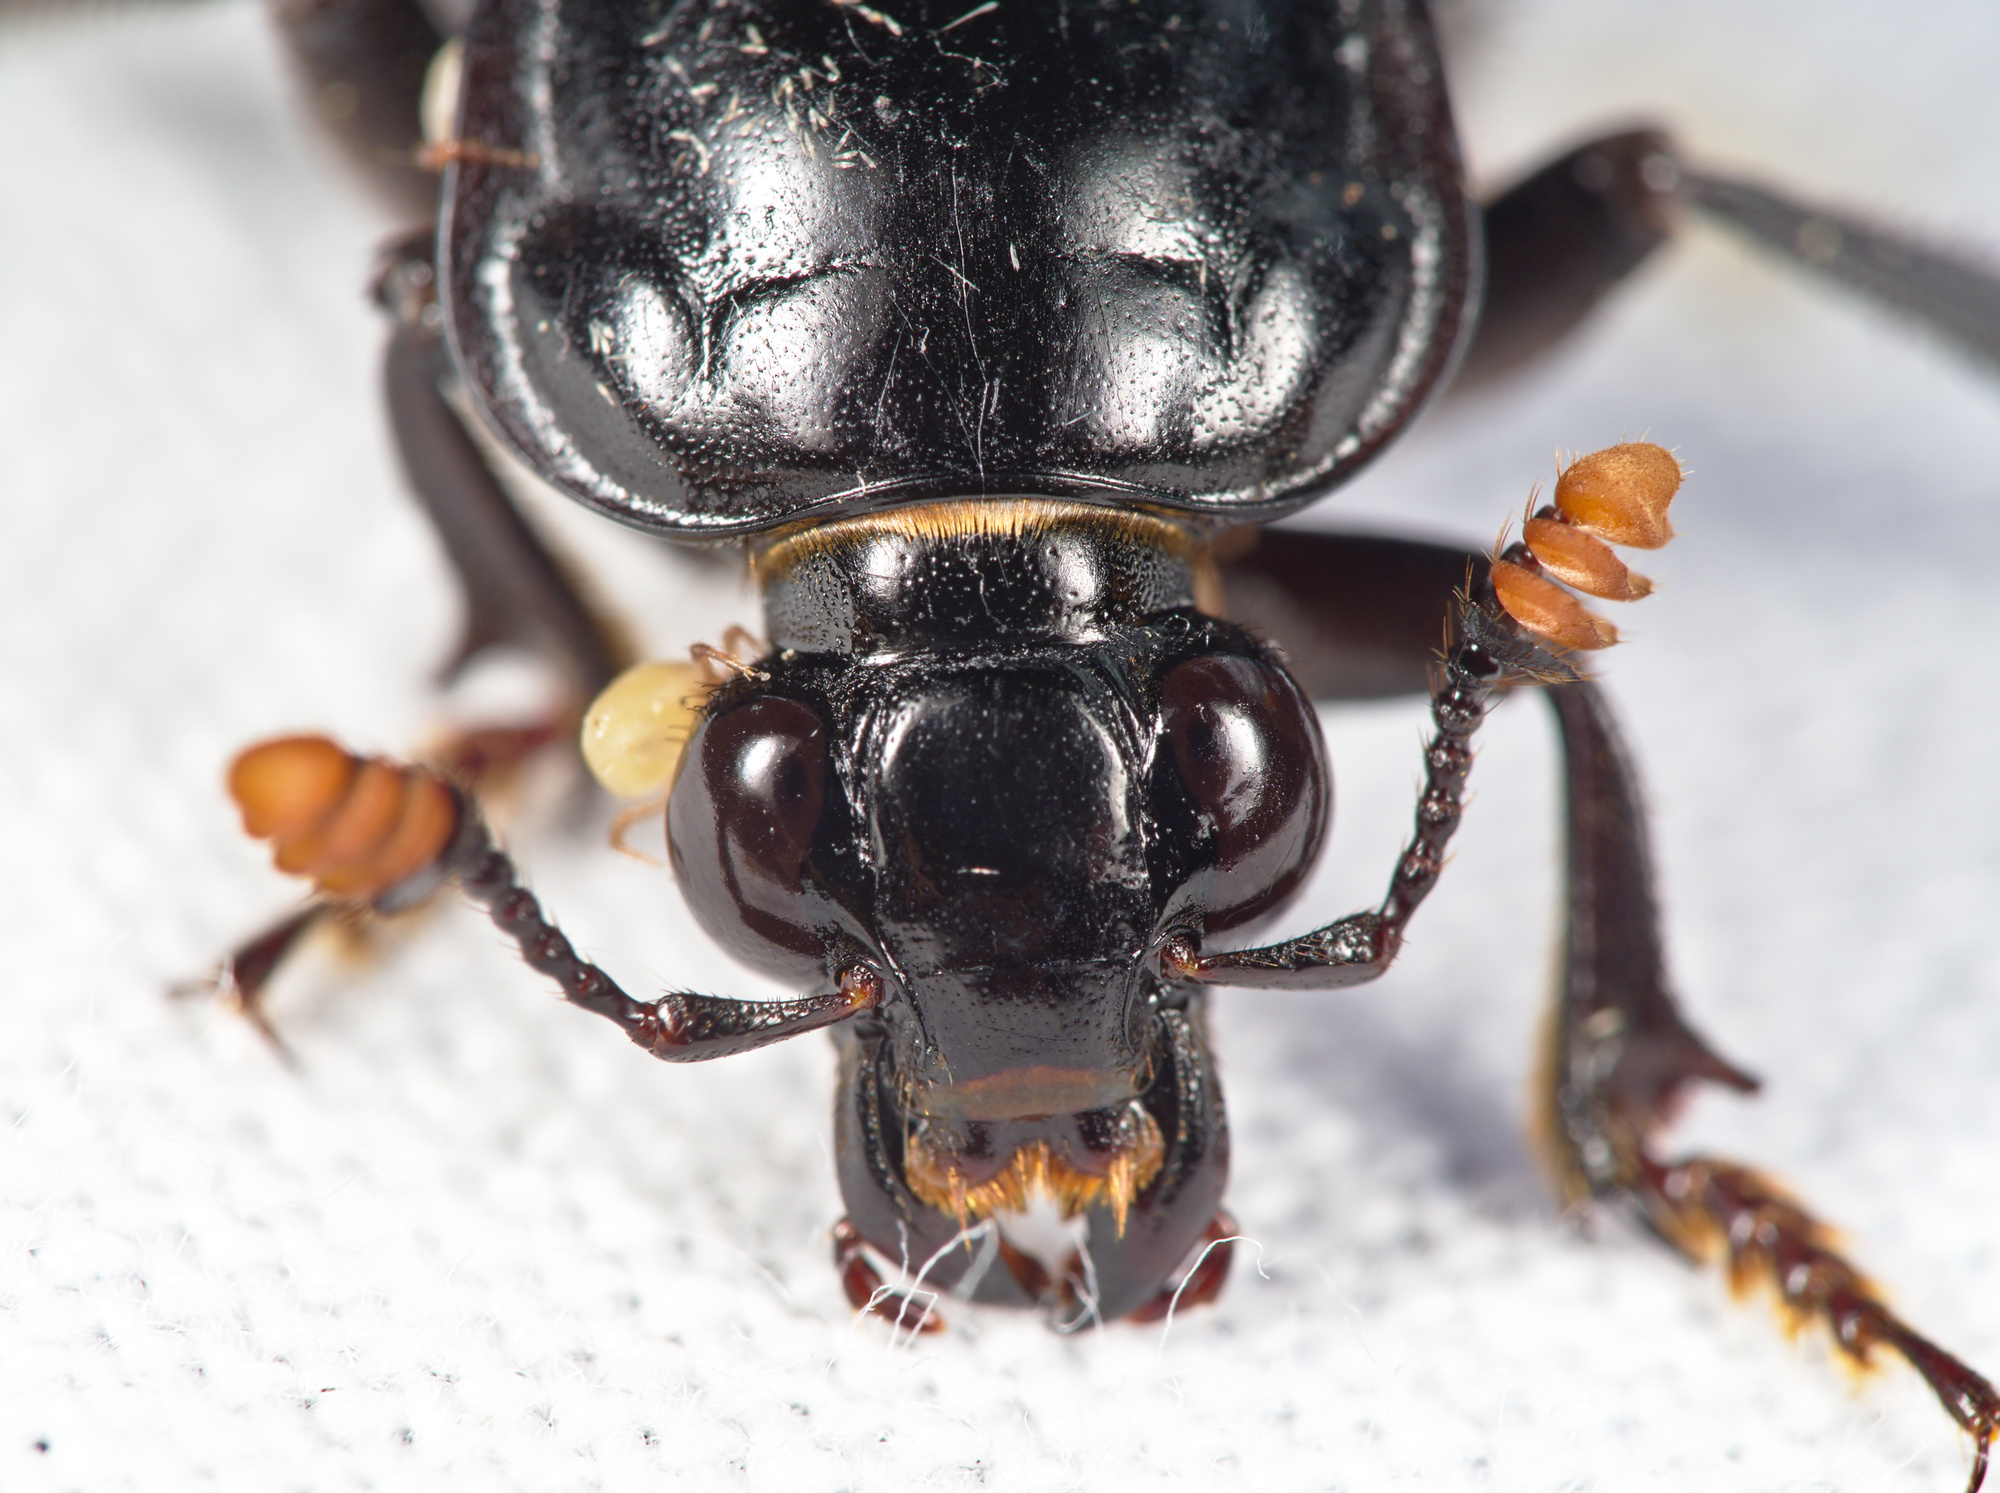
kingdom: Animalia
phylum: Arthropoda
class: Insecta
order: Coleoptera
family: Staphylinidae
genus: Nicrophorus
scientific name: Nicrophorus humator
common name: Black sexton beetle
